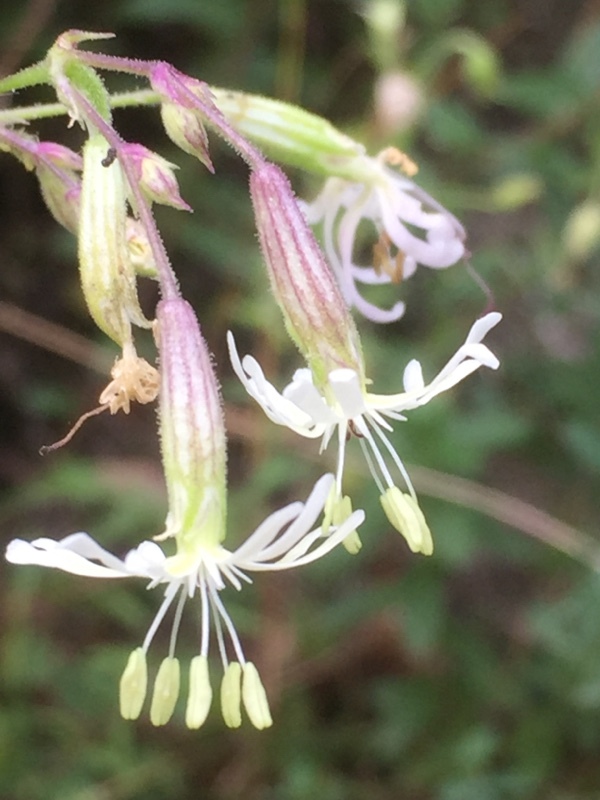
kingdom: Plantae
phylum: Tracheophyta
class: Magnoliopsida
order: Caryophyllales
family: Caryophyllaceae
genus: Silene
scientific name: Silene nutans
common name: Nottingham catchfly
